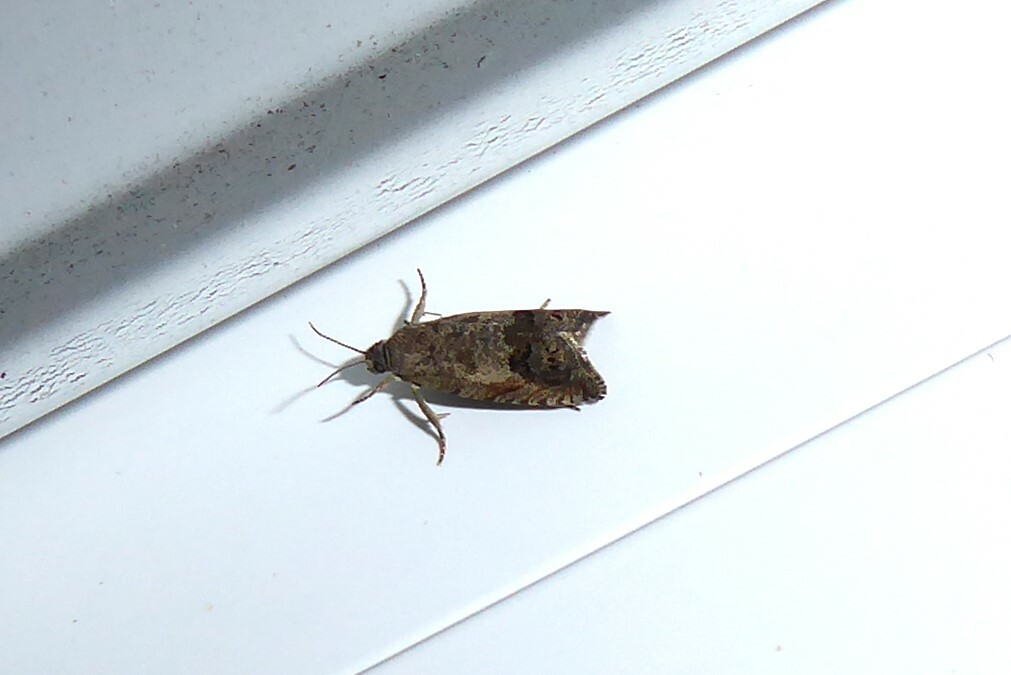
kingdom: Animalia
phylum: Arthropoda
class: Insecta
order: Lepidoptera
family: Tortricidae
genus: Cydia
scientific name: Cydia succedana
